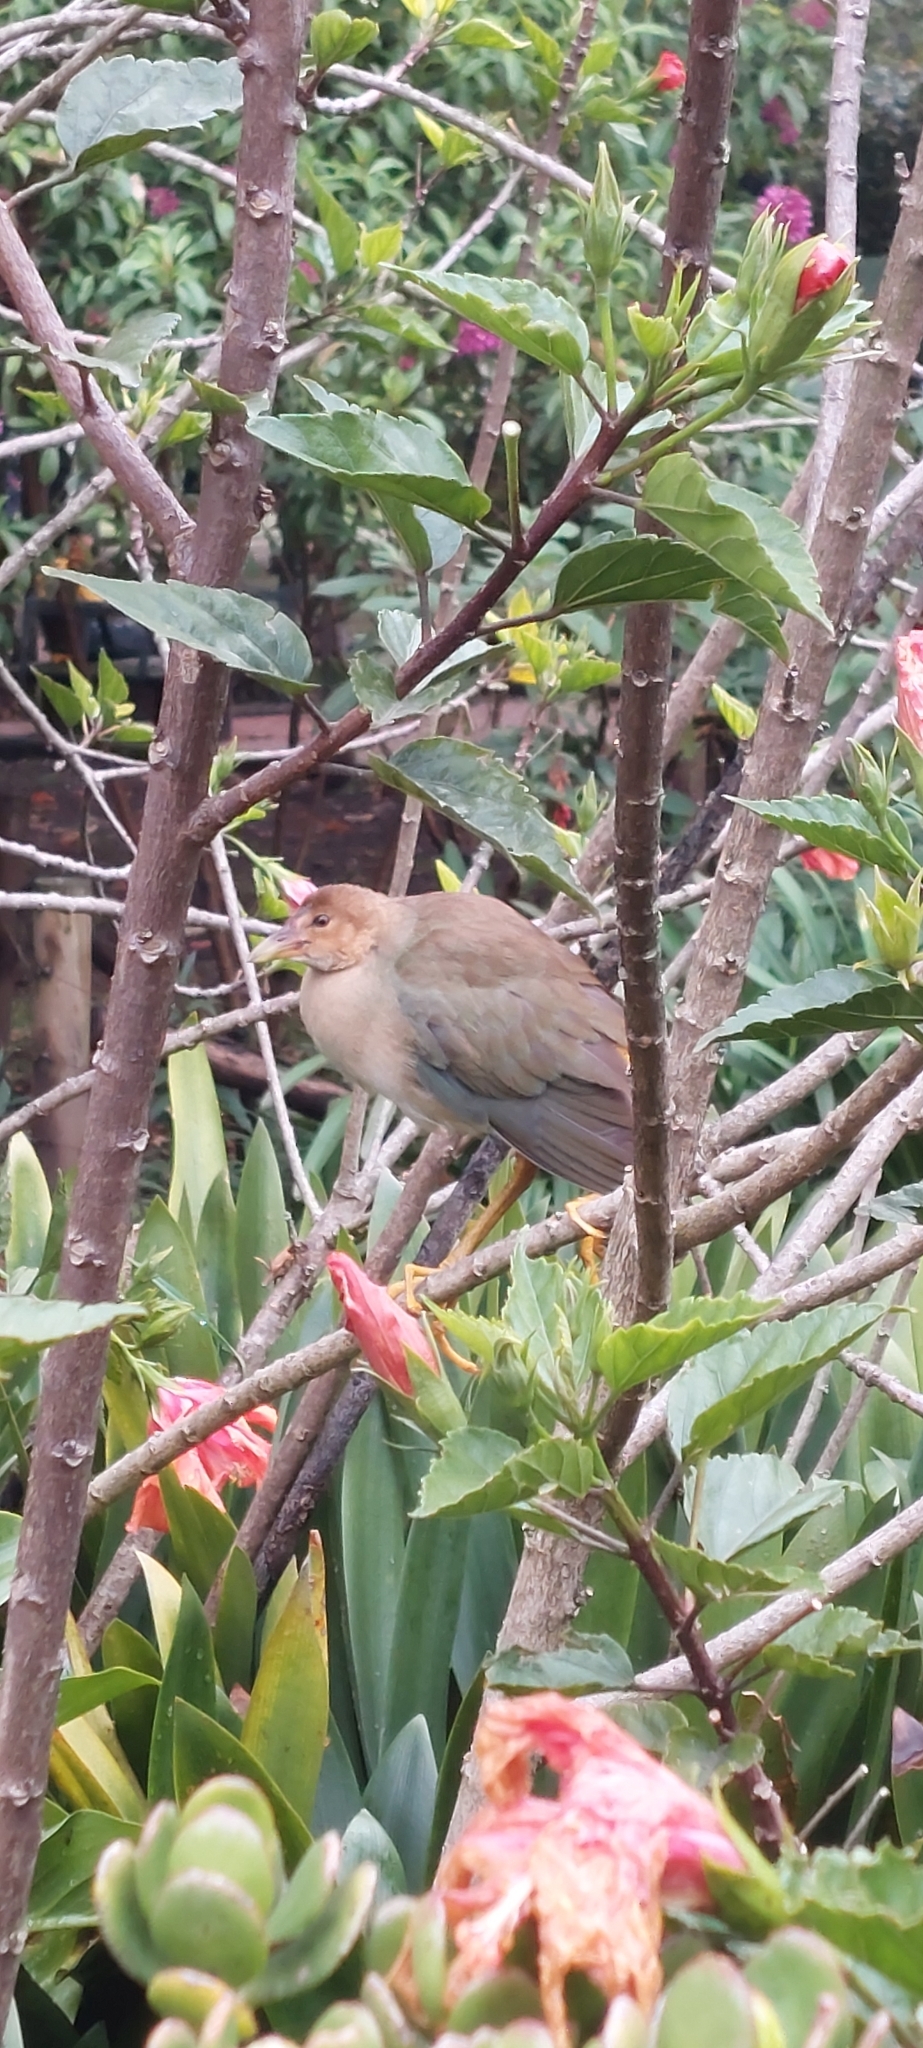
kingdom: Animalia
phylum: Chordata
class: Aves
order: Gruiformes
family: Rallidae
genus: Porphyrio
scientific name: Porphyrio martinica
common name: Purple gallinule
